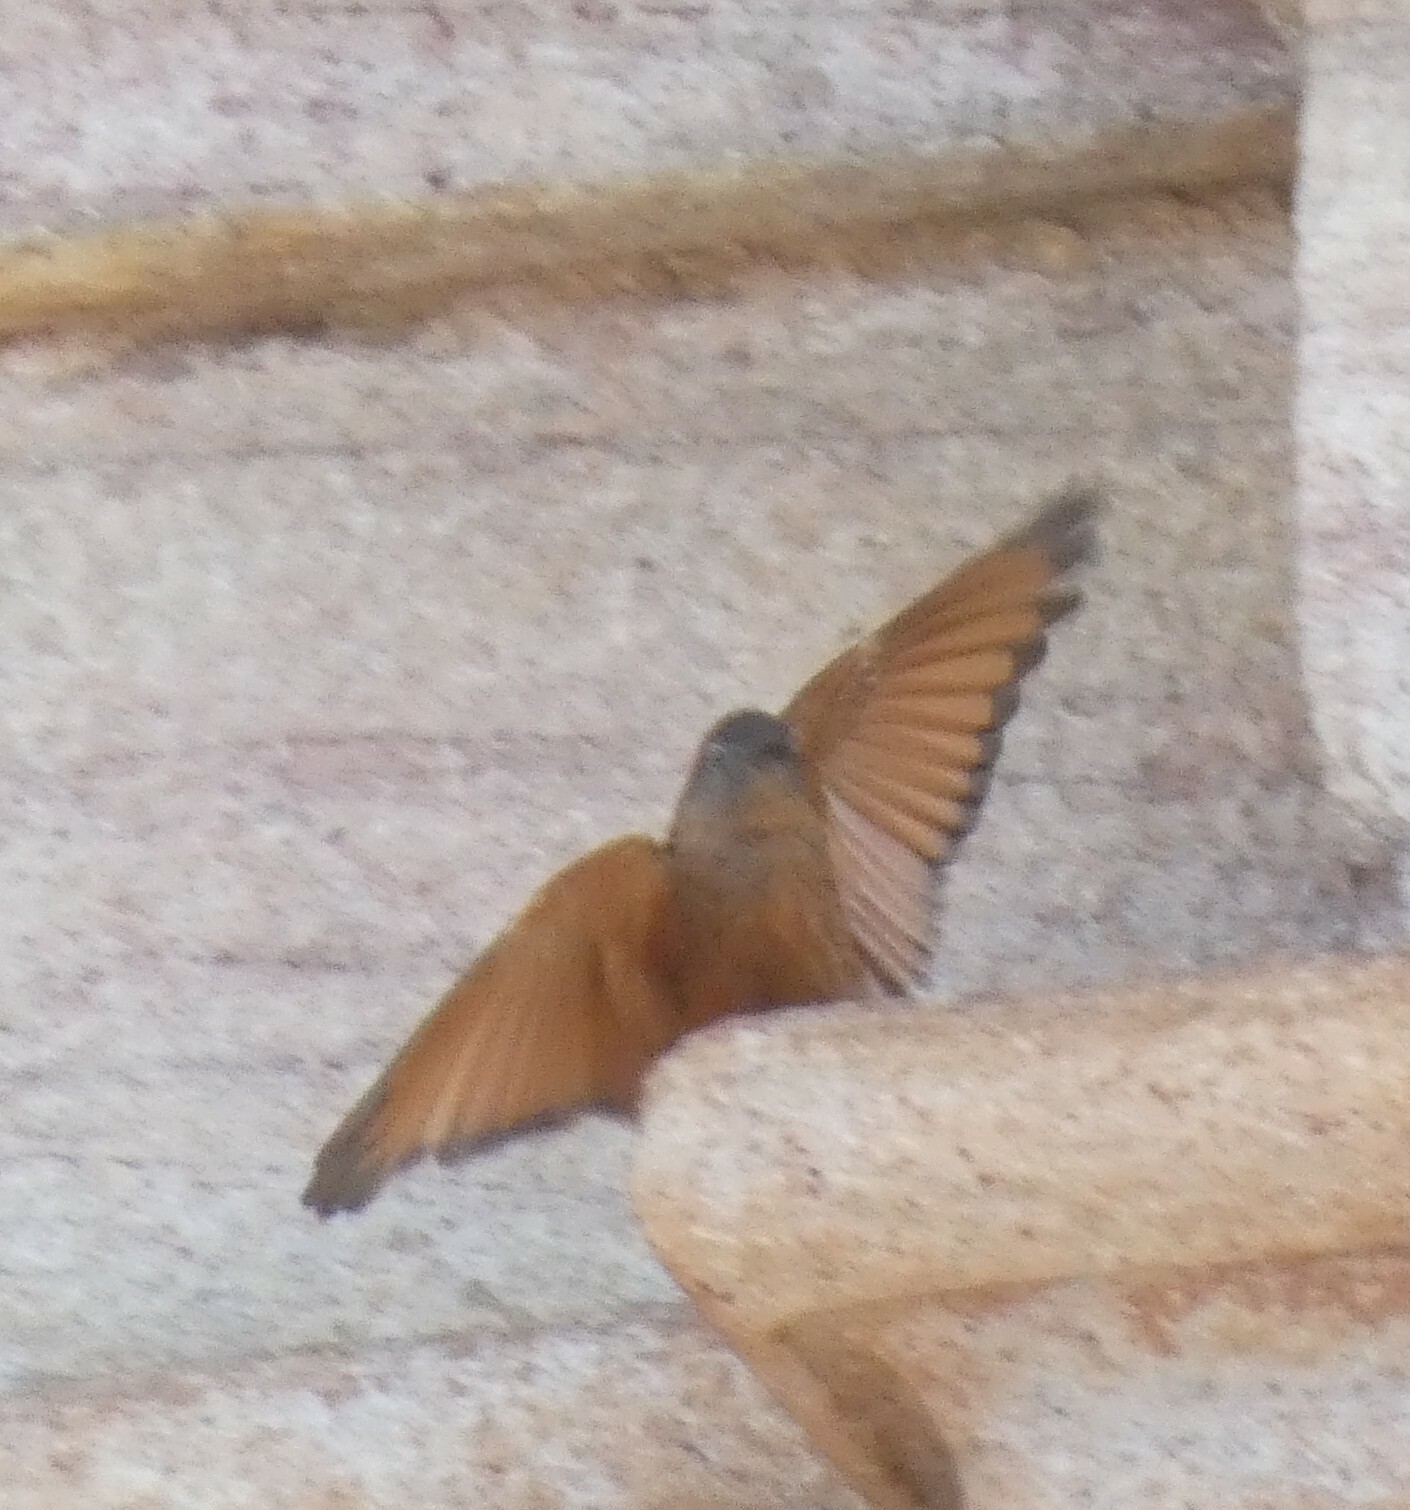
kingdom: Animalia
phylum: Chordata
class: Aves
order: Passeriformes
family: Tyrannidae
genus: Hirundinea
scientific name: Hirundinea ferruginea
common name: Cliff flycatcher
